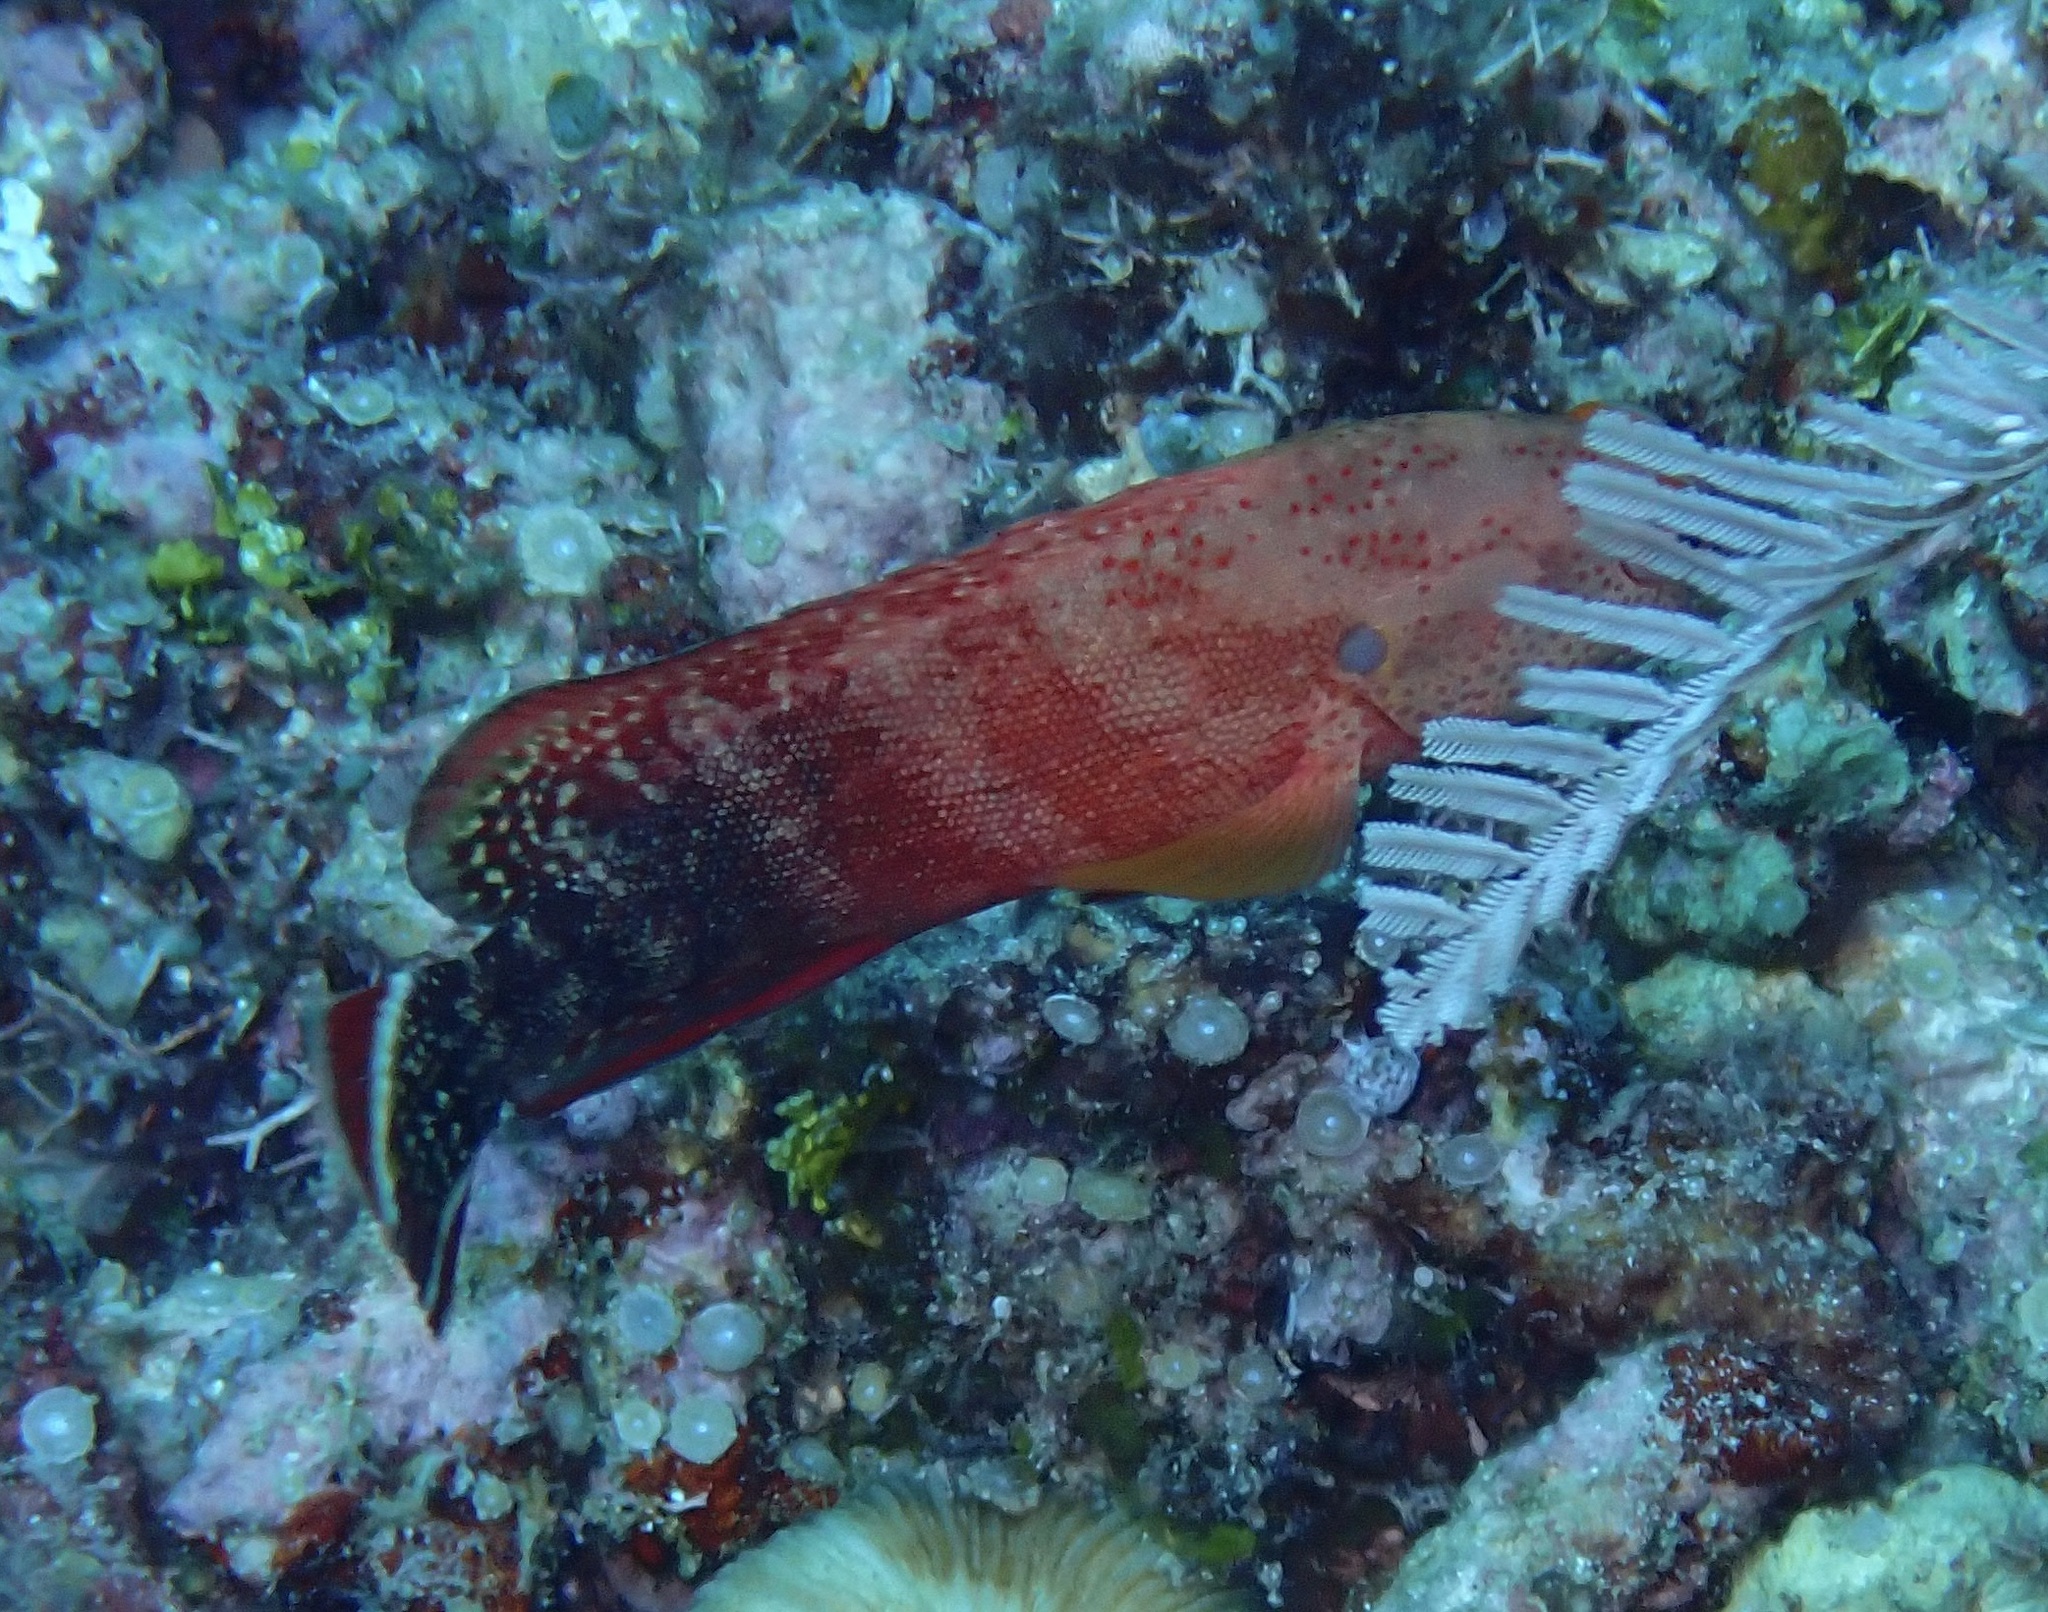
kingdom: Animalia
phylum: Chordata
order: Perciformes
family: Serranidae
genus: Cephalopholis
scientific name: Cephalopholis urodeta
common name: Darkfin hind
